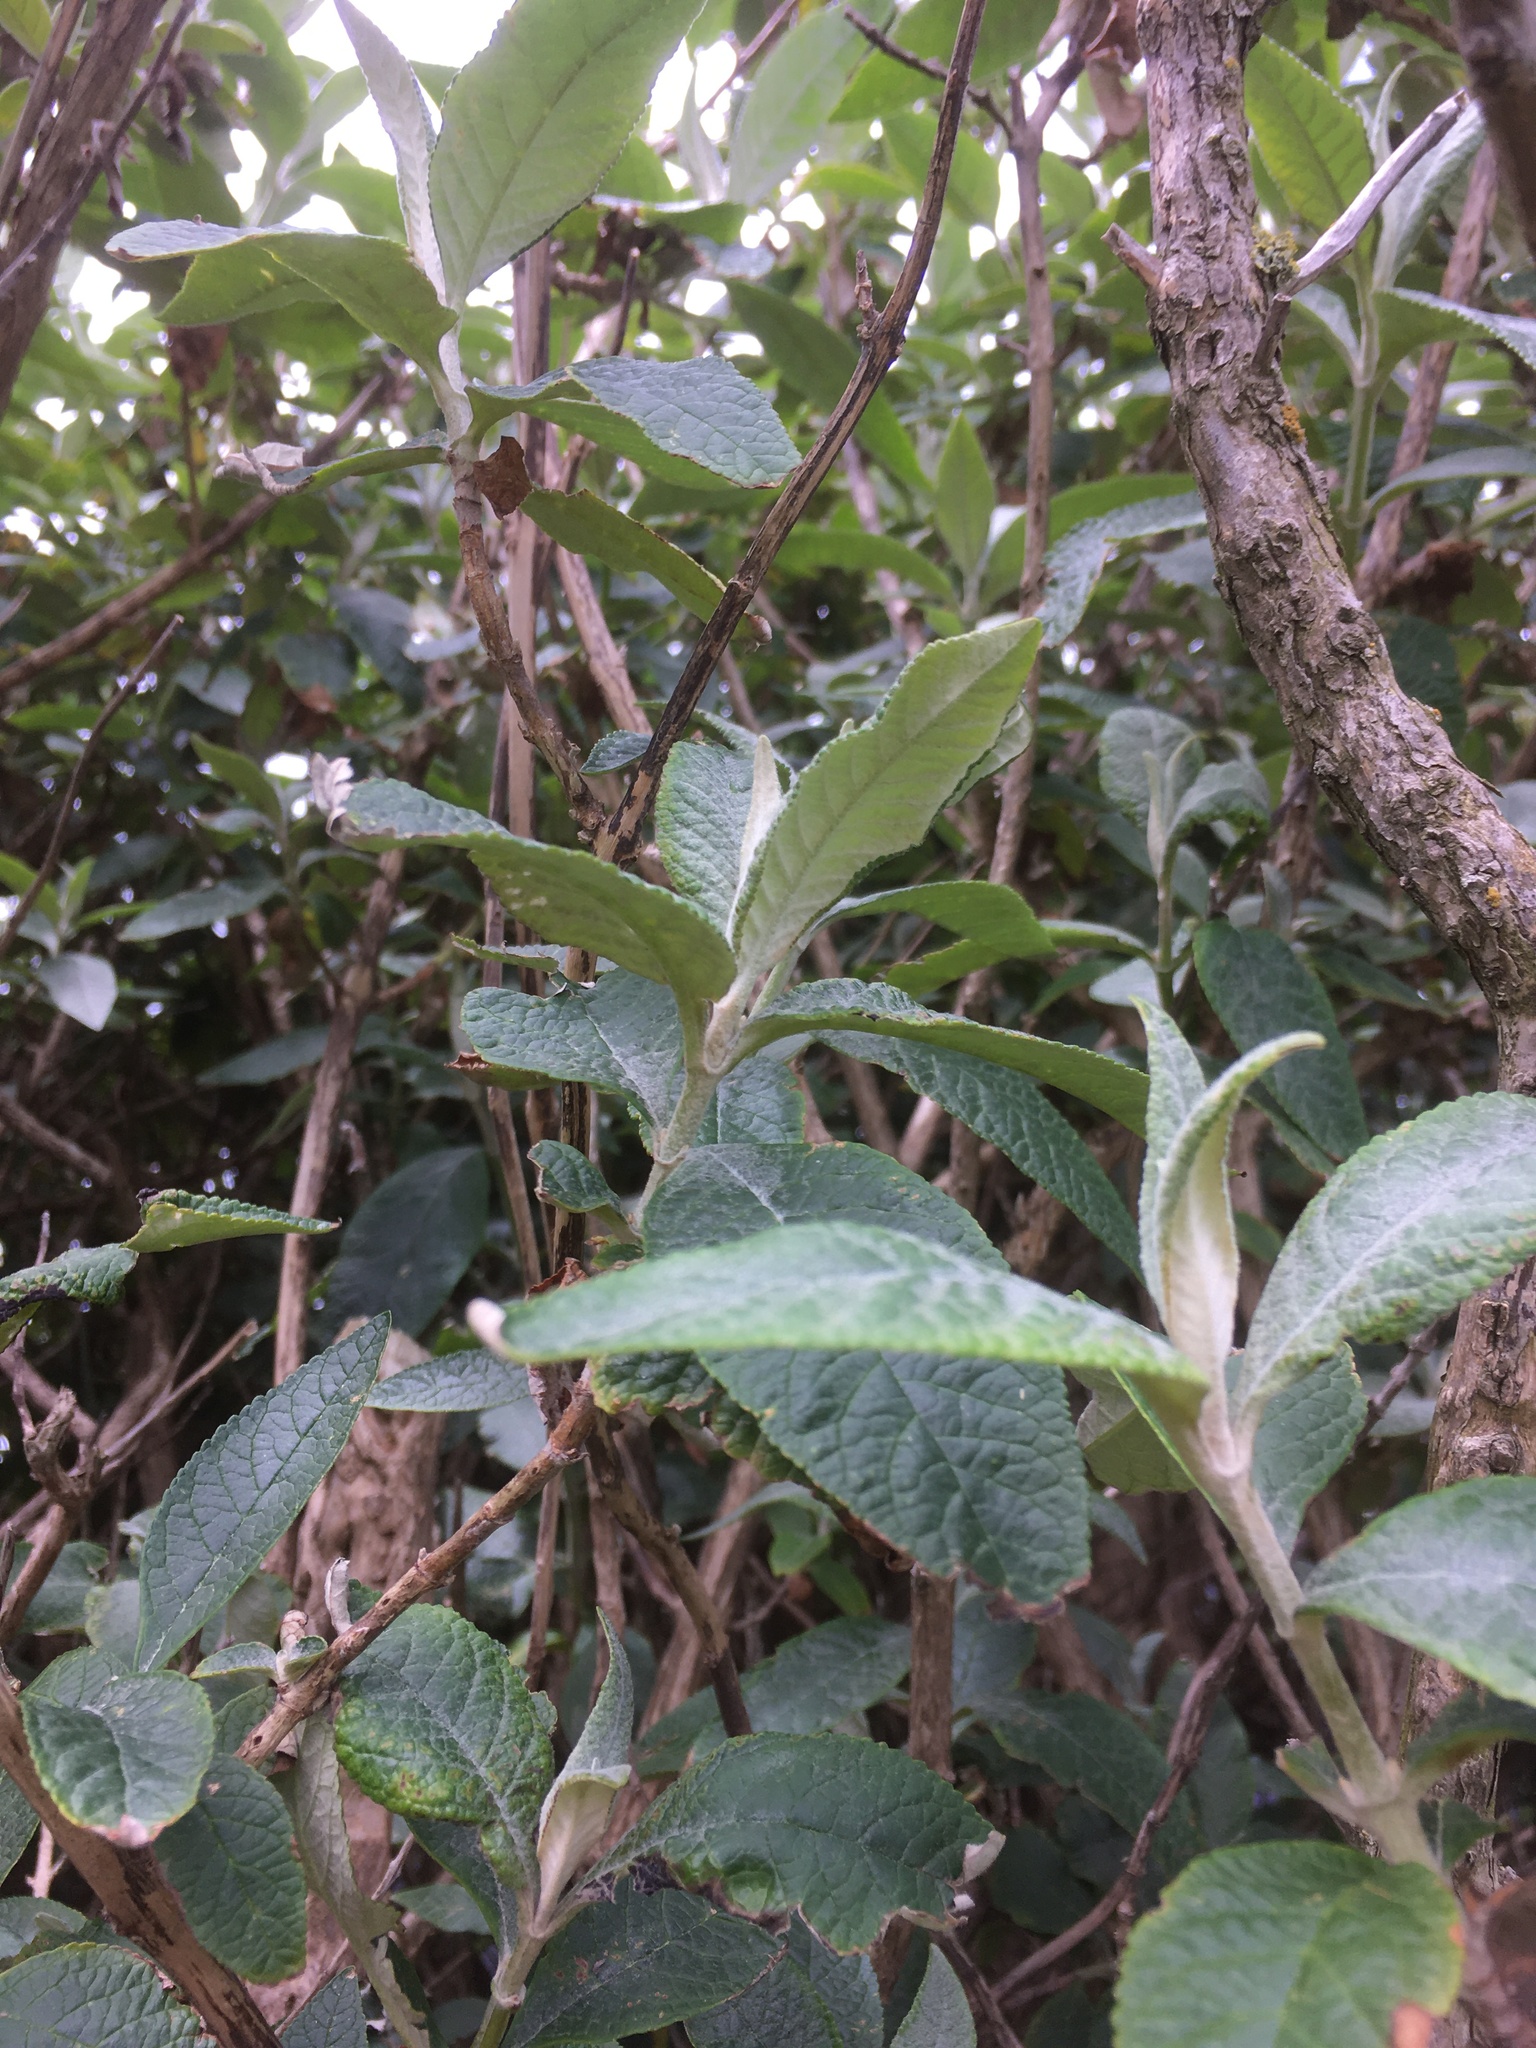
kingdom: Plantae
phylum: Tracheophyta
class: Magnoliopsida
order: Lamiales
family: Scrophulariaceae
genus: Buddleja
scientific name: Buddleja davidii
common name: Butterfly-bush
